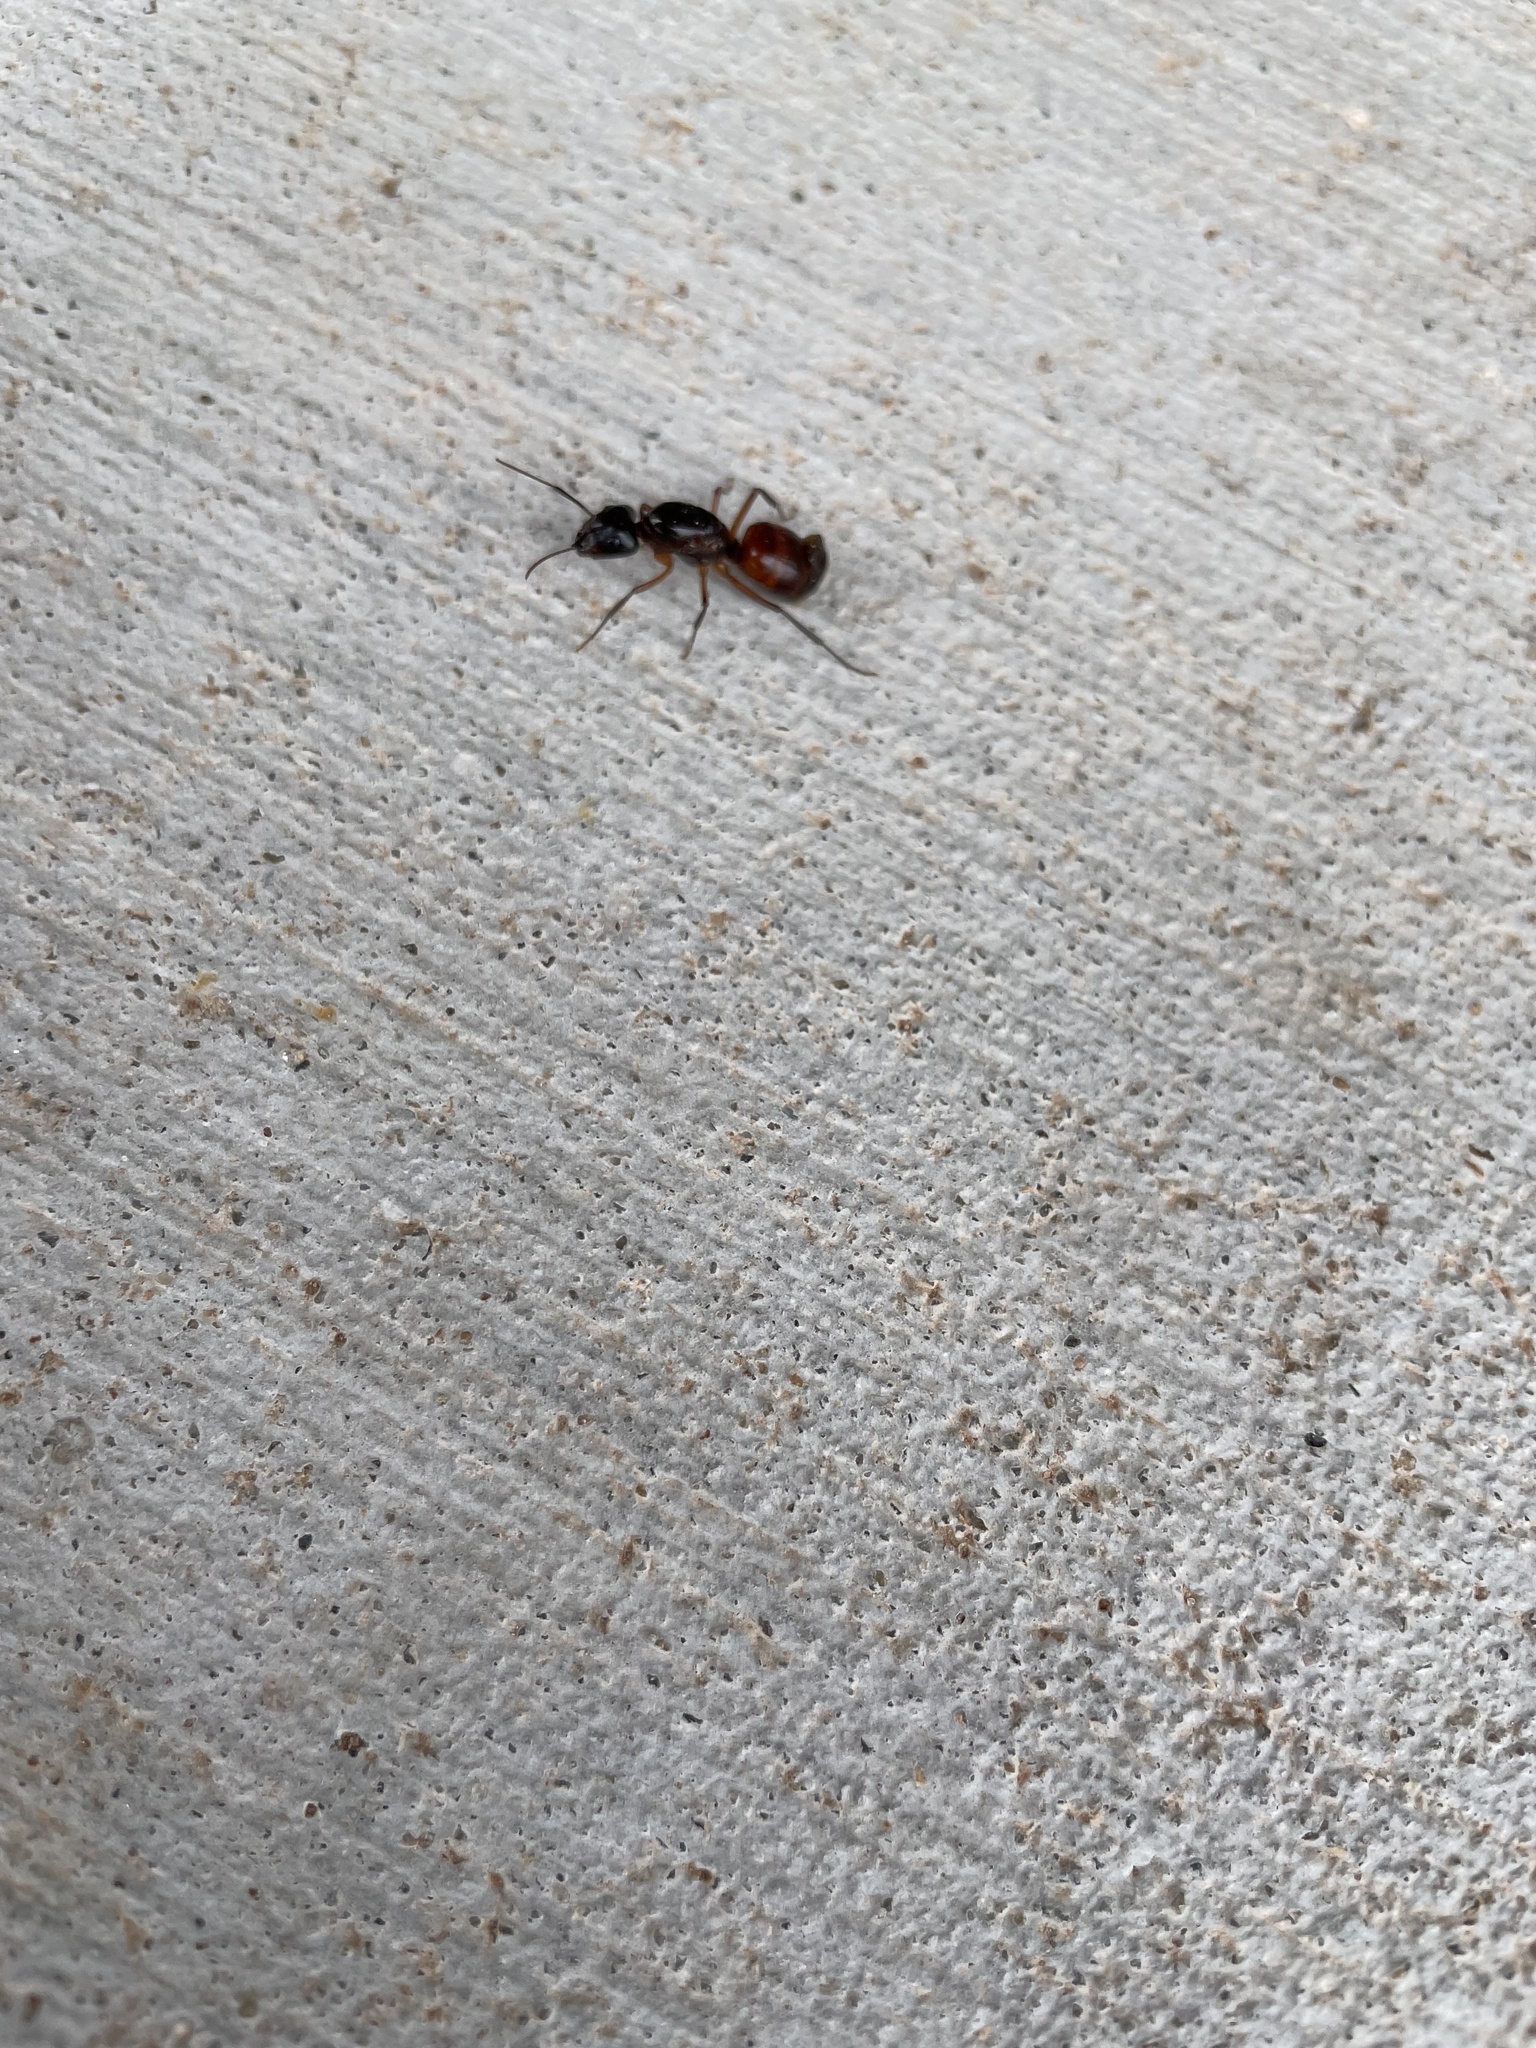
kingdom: Animalia
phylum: Arthropoda
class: Insecta
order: Hymenoptera
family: Formicidae
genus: Camponotus
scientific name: Camponotus americanus
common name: American carpenter ant
